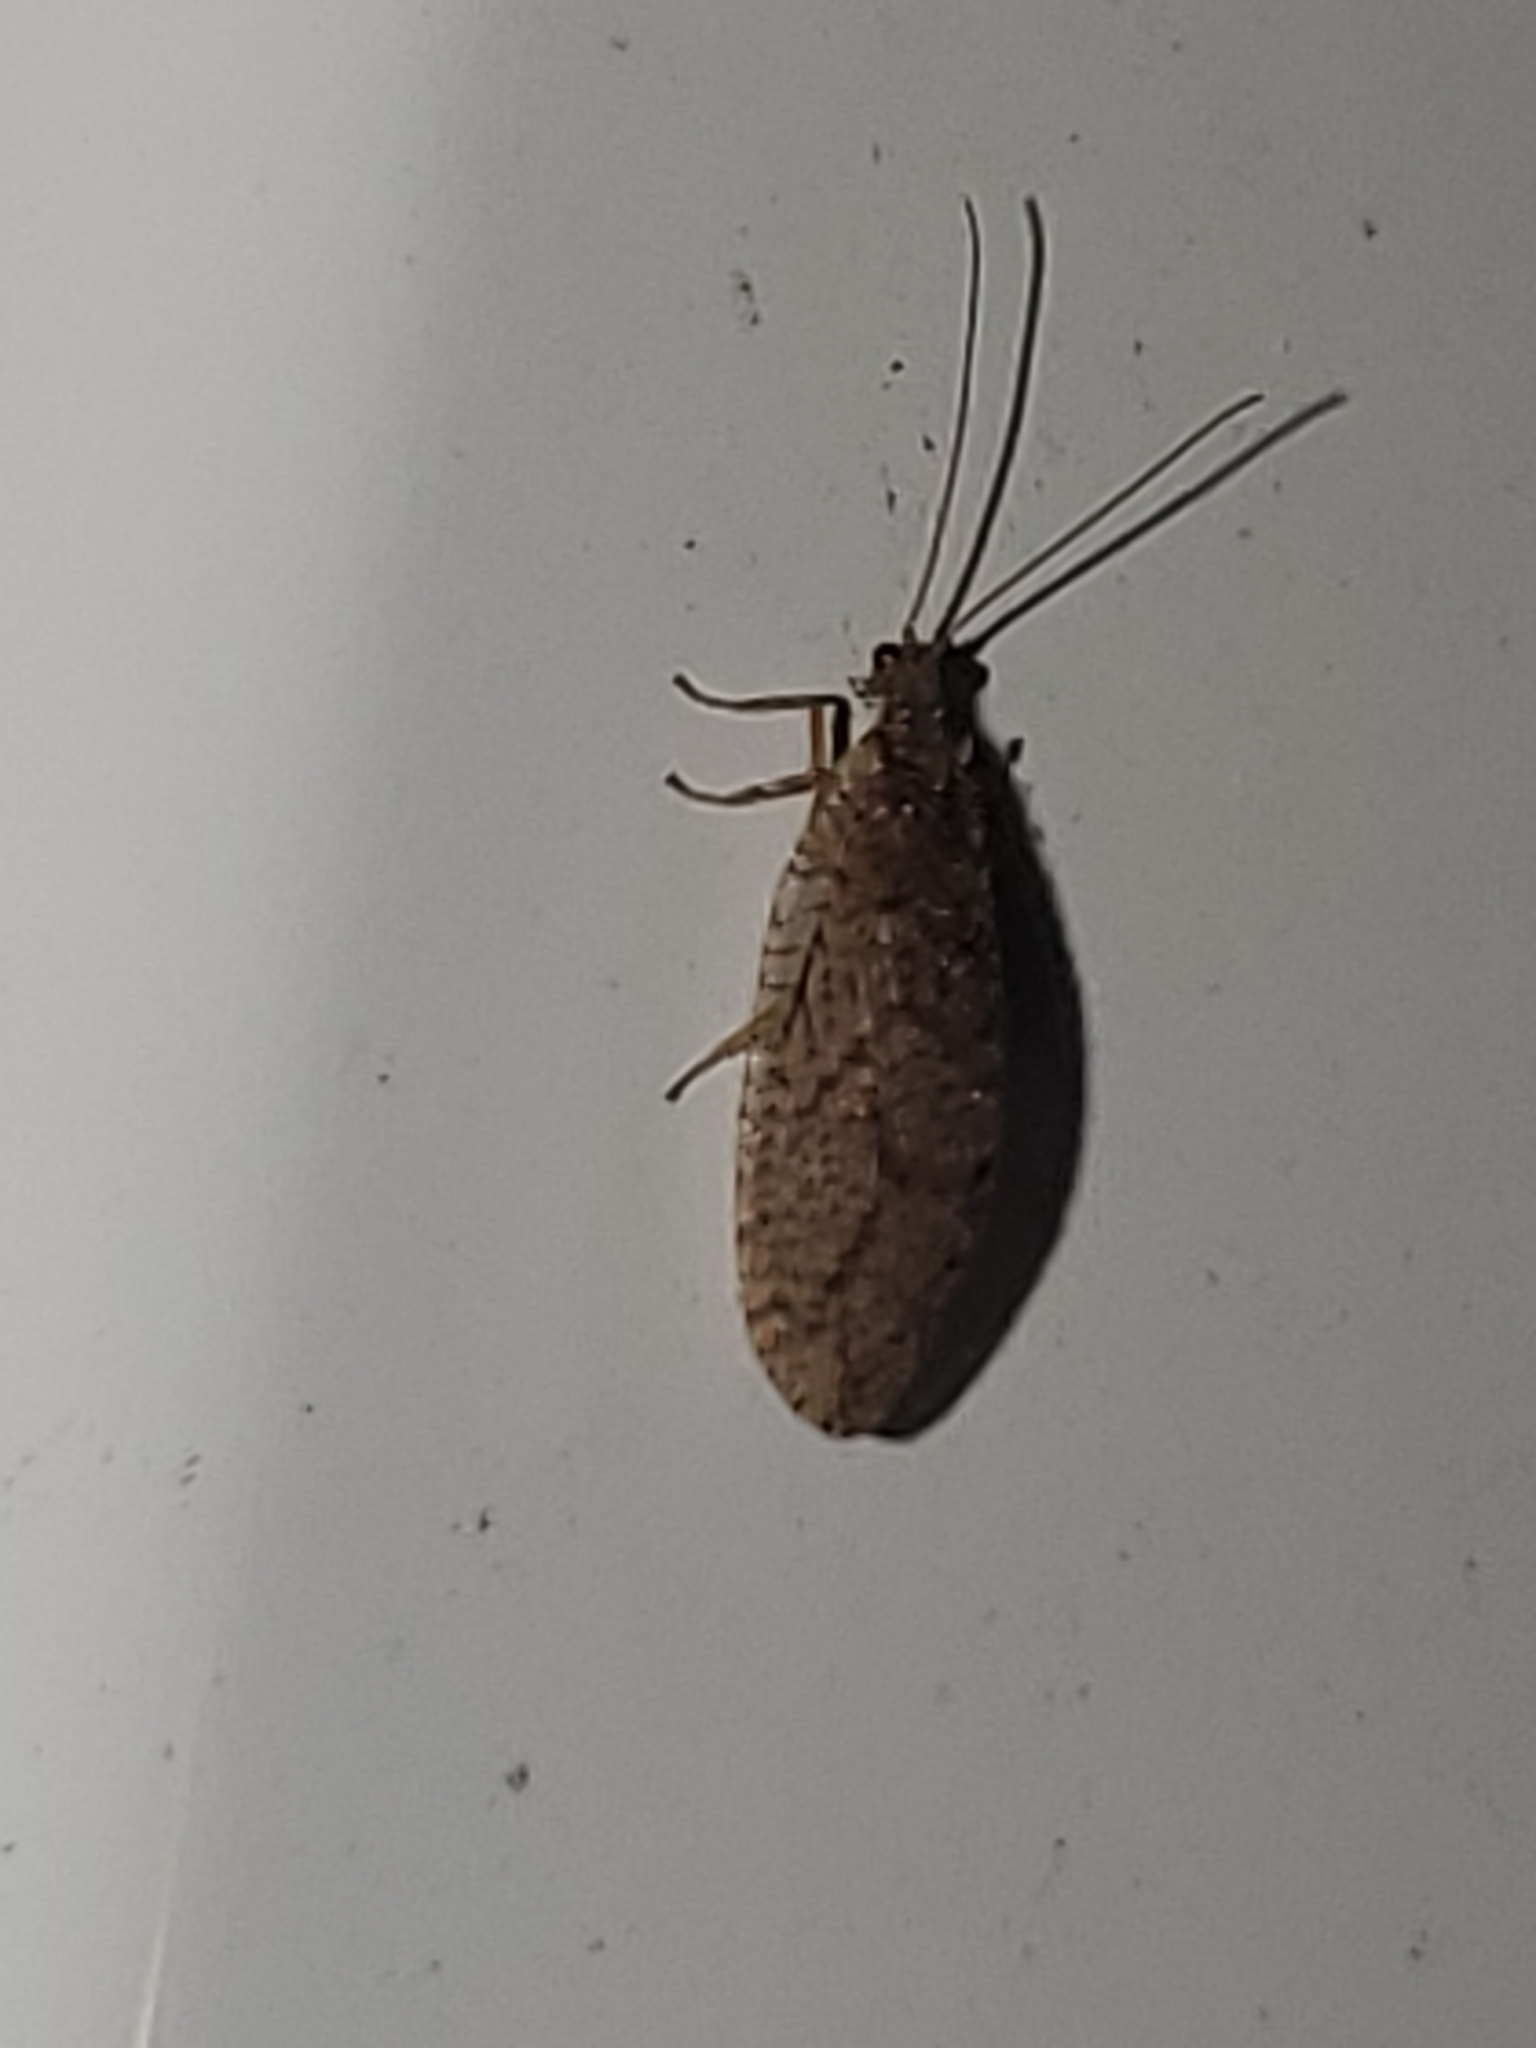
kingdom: Animalia
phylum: Arthropoda
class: Insecta
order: Neuroptera
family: Hemerobiidae
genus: Micromus
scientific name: Micromus posticus
